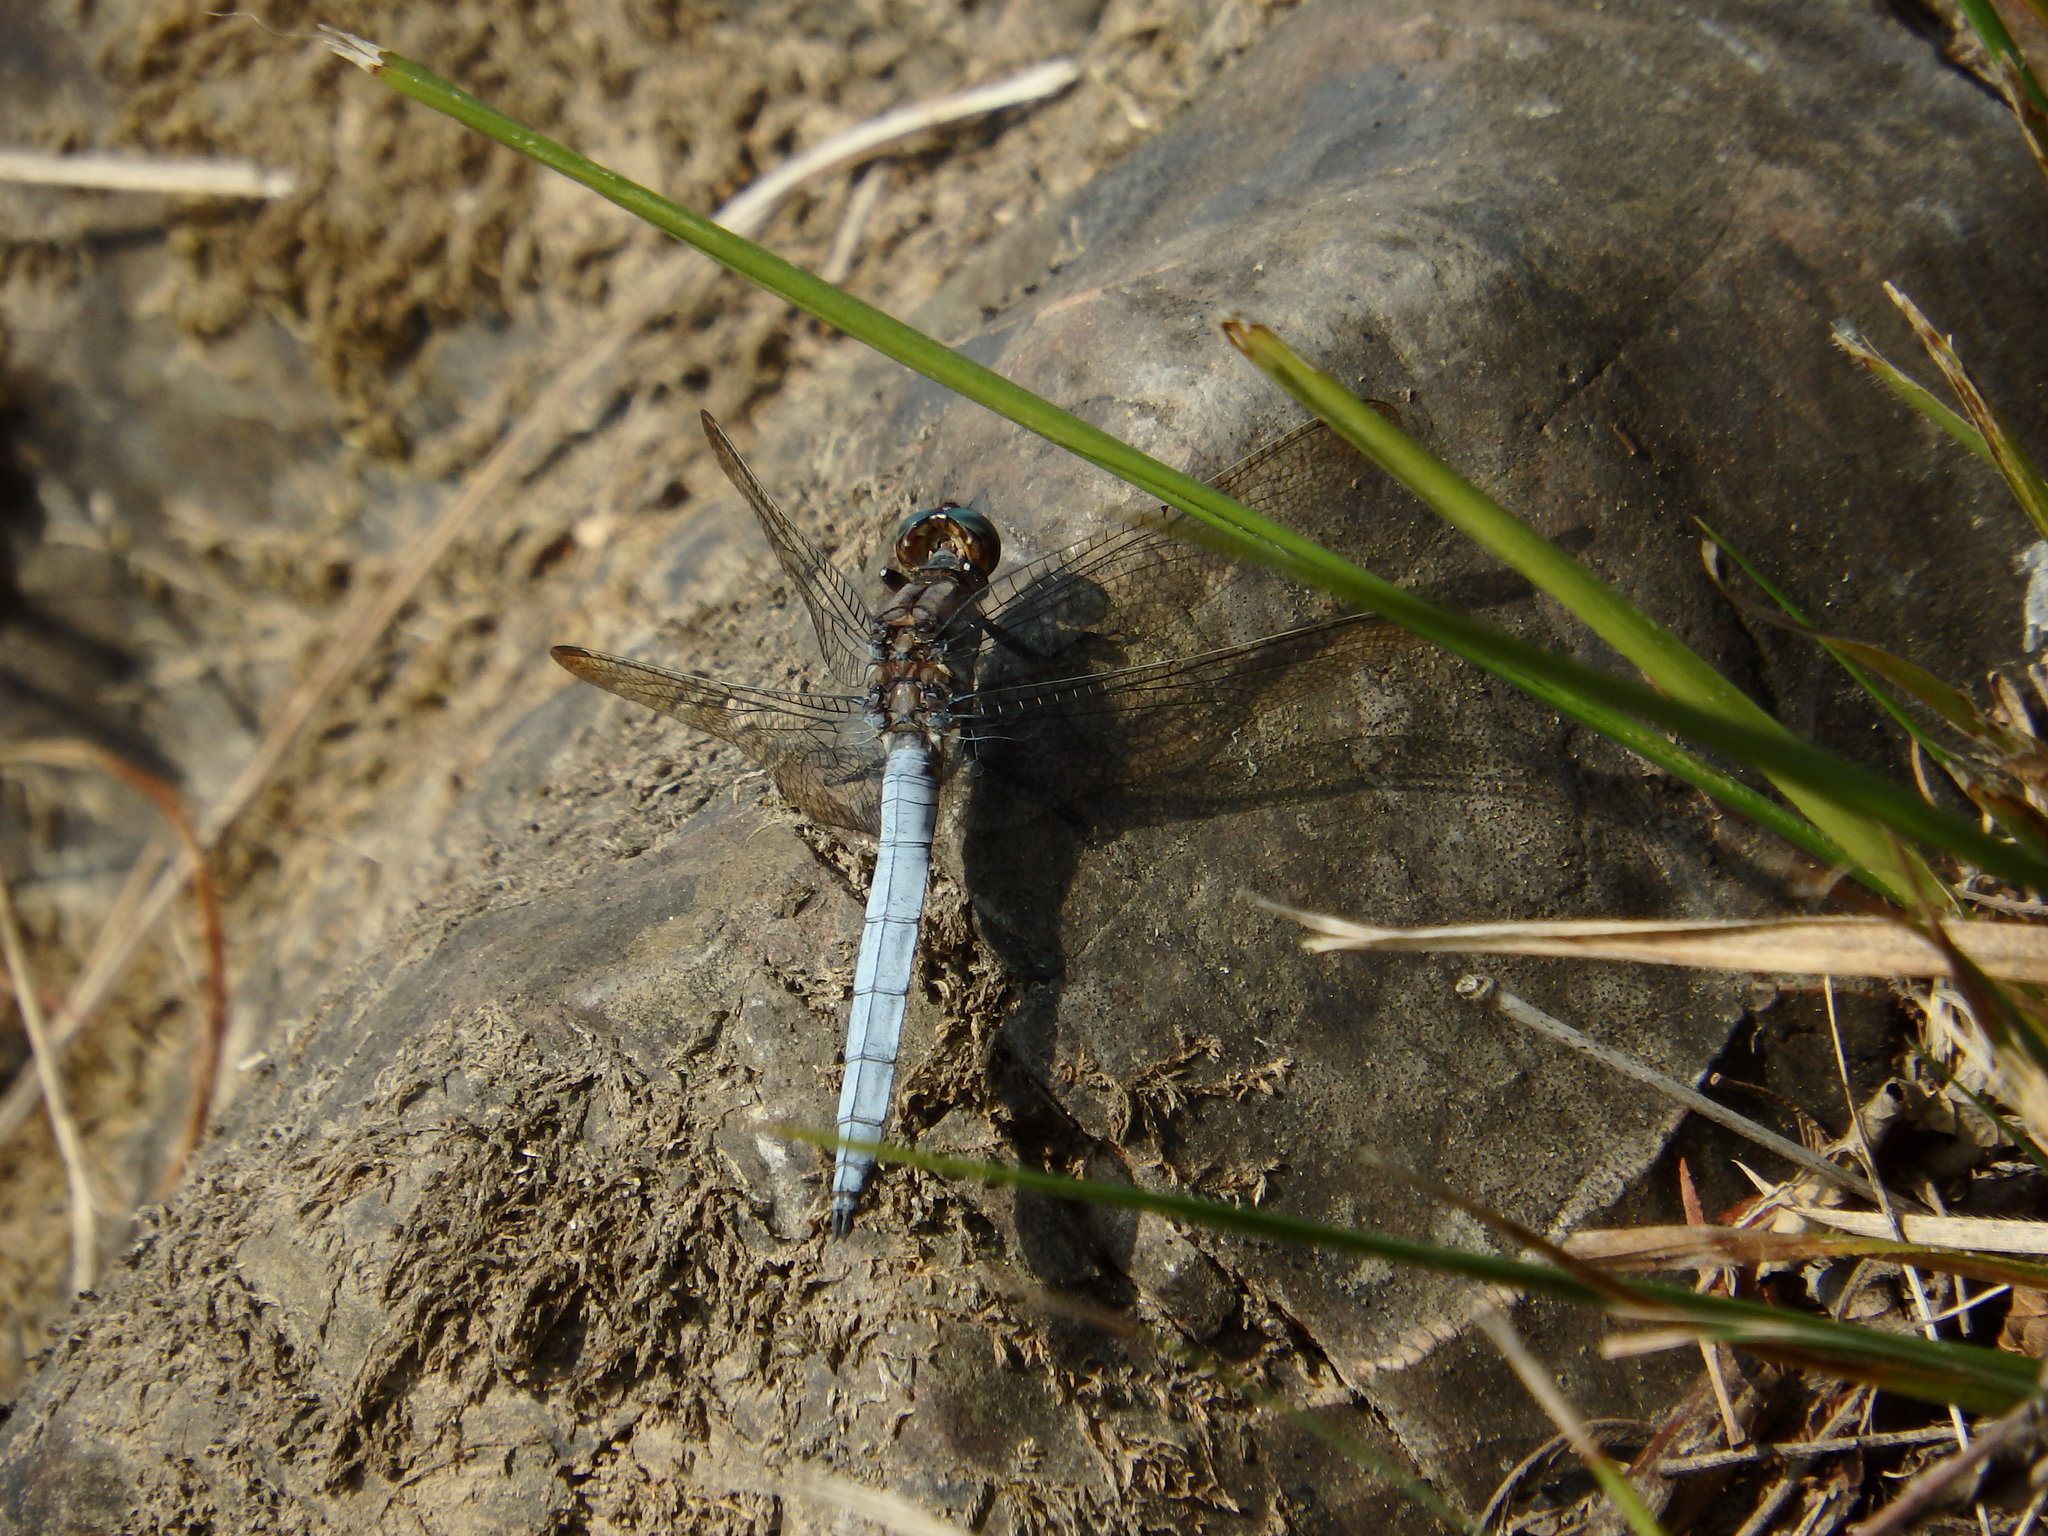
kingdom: Animalia
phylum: Arthropoda
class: Insecta
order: Odonata
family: Libellulidae
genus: Orthetrum
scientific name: Orthetrum coerulescens
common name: Keeled skimmer
